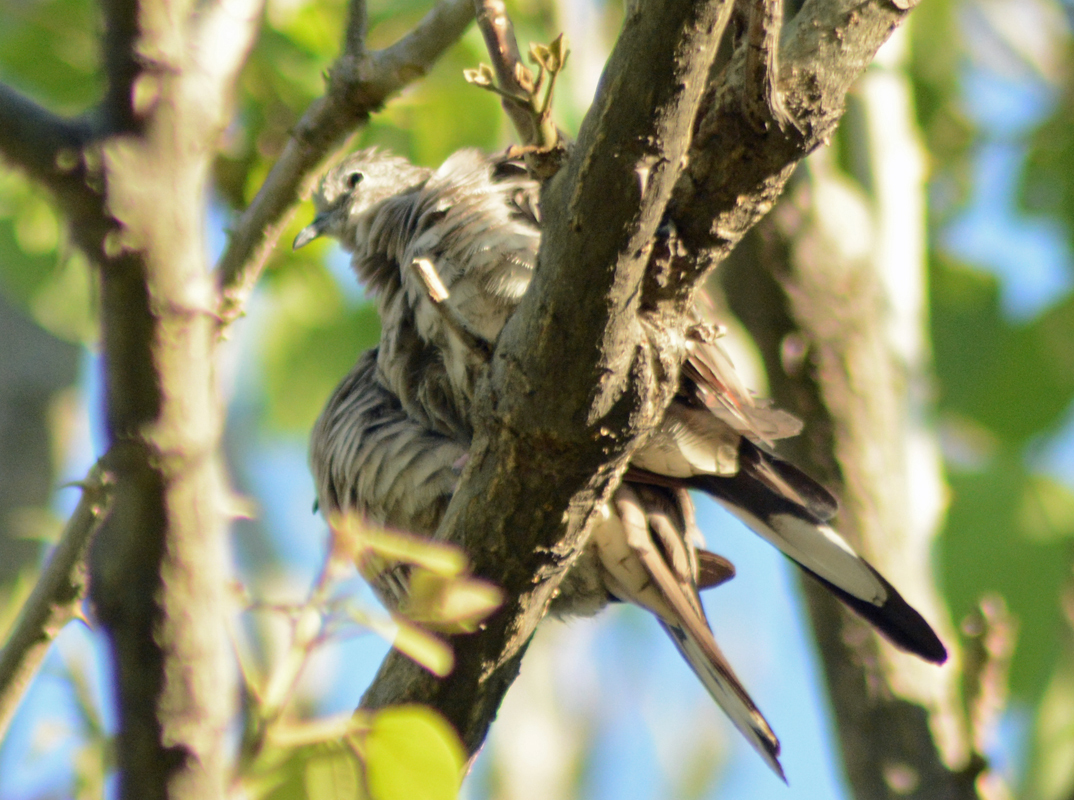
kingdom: Animalia
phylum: Chordata
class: Aves
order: Columbiformes
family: Columbidae
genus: Columbina
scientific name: Columbina inca
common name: Inca dove
